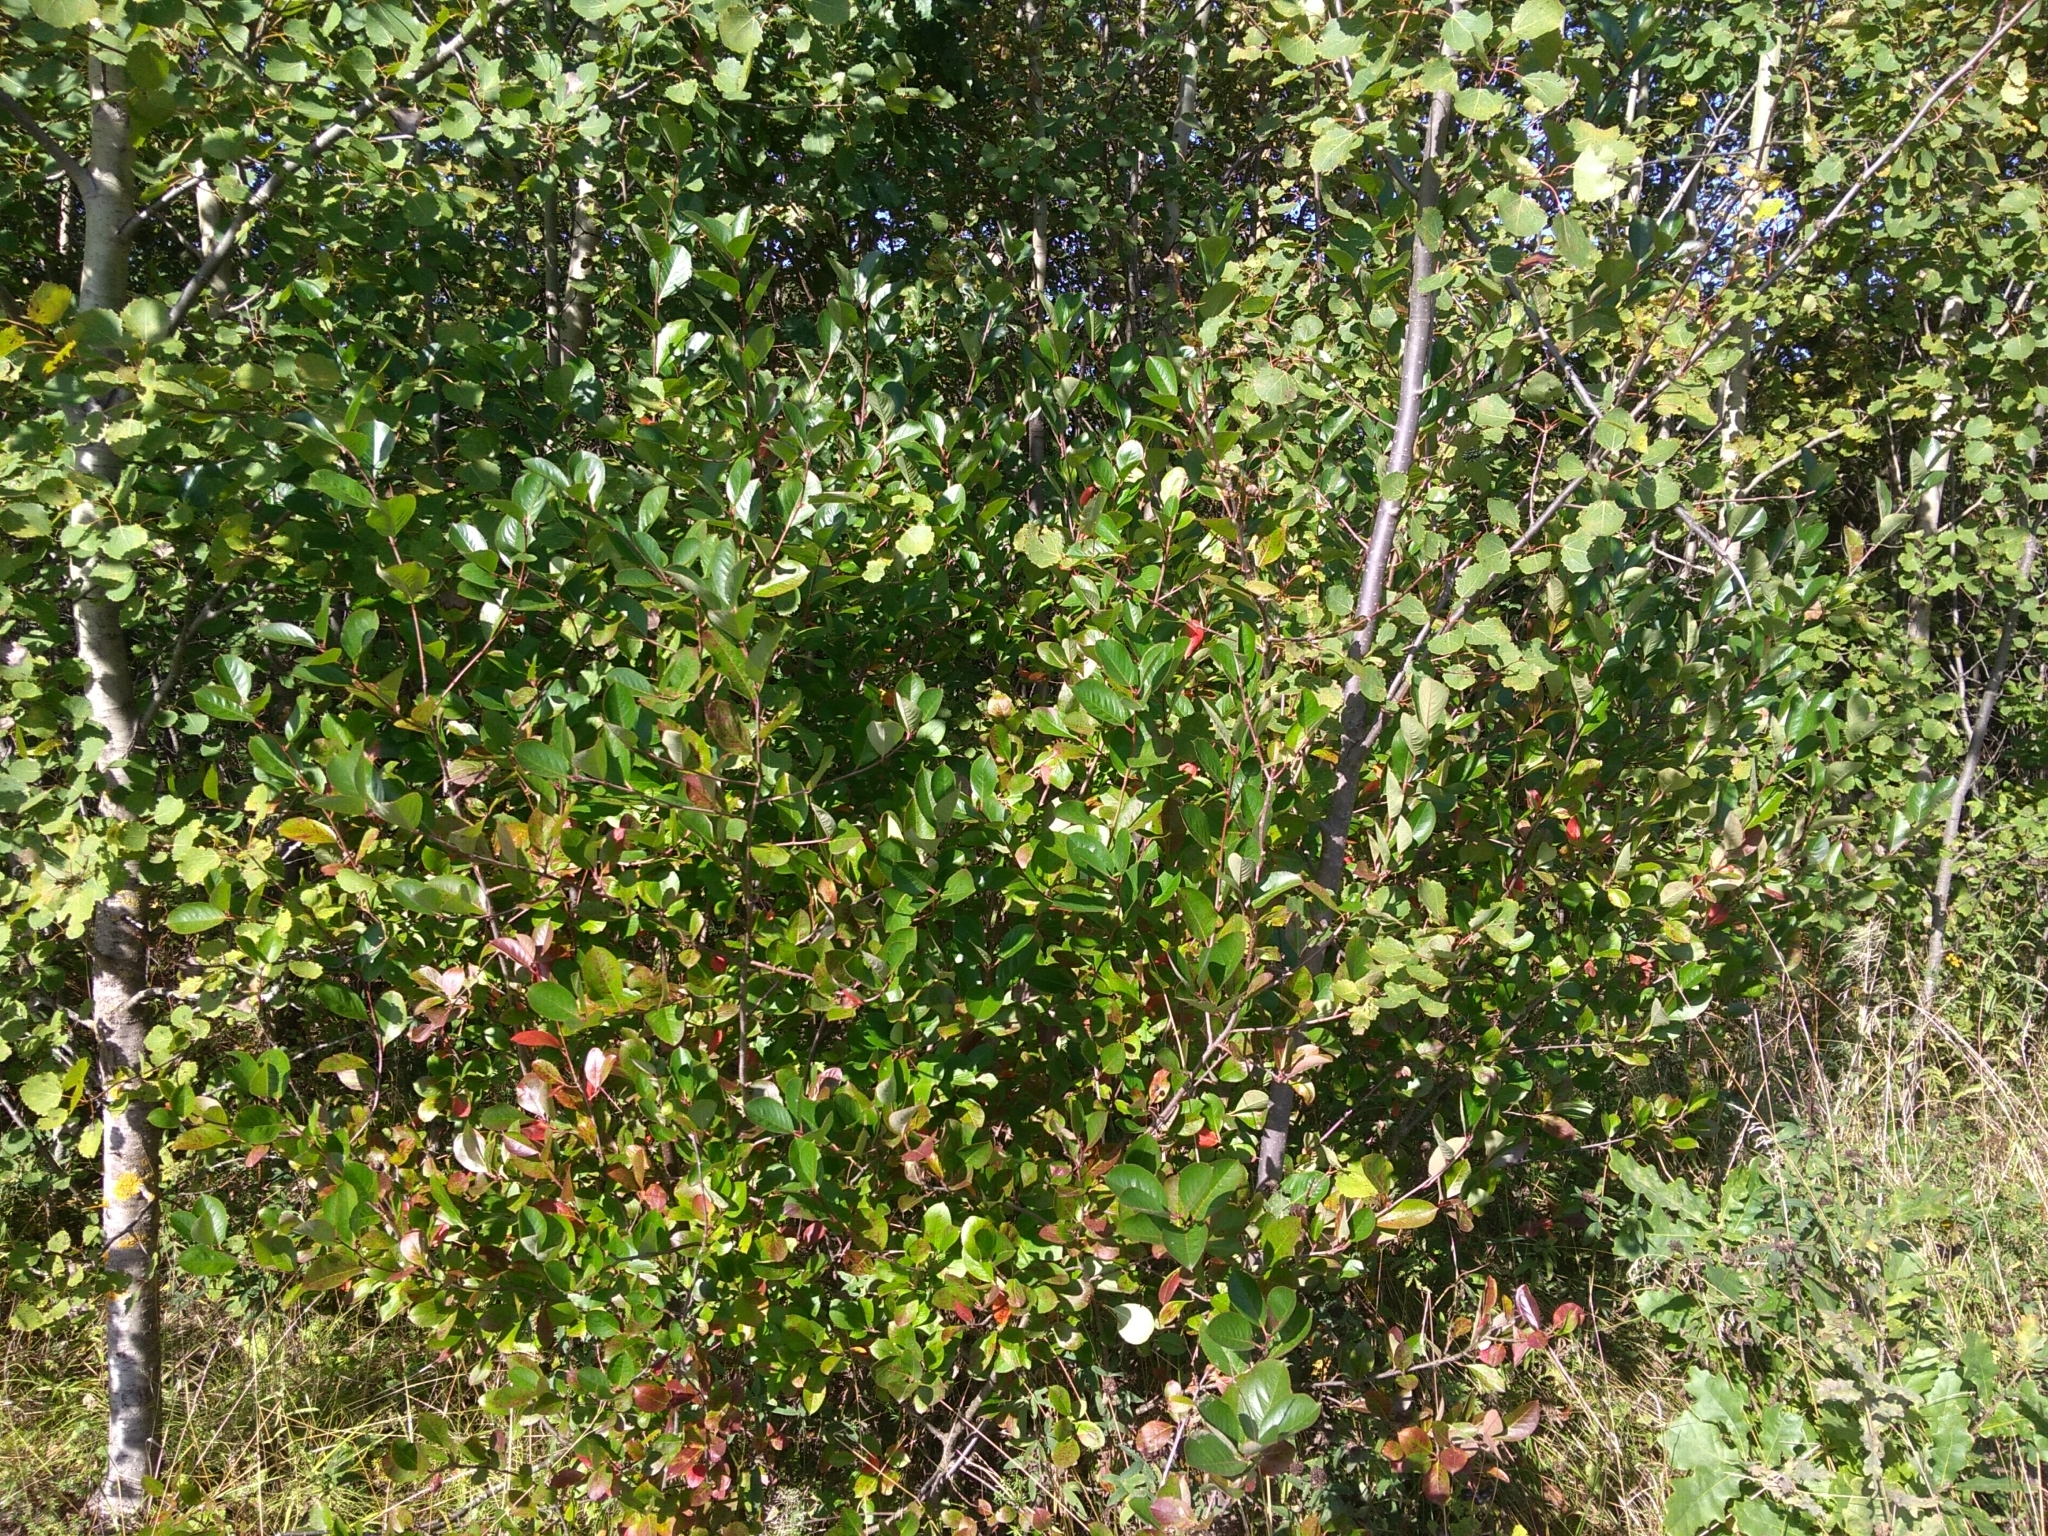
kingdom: Plantae
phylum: Tracheophyta
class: Magnoliopsida
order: Rosales
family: Rosaceae
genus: Sorbaronia
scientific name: Sorbaronia arsenii
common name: Arsène's mountain-ash
